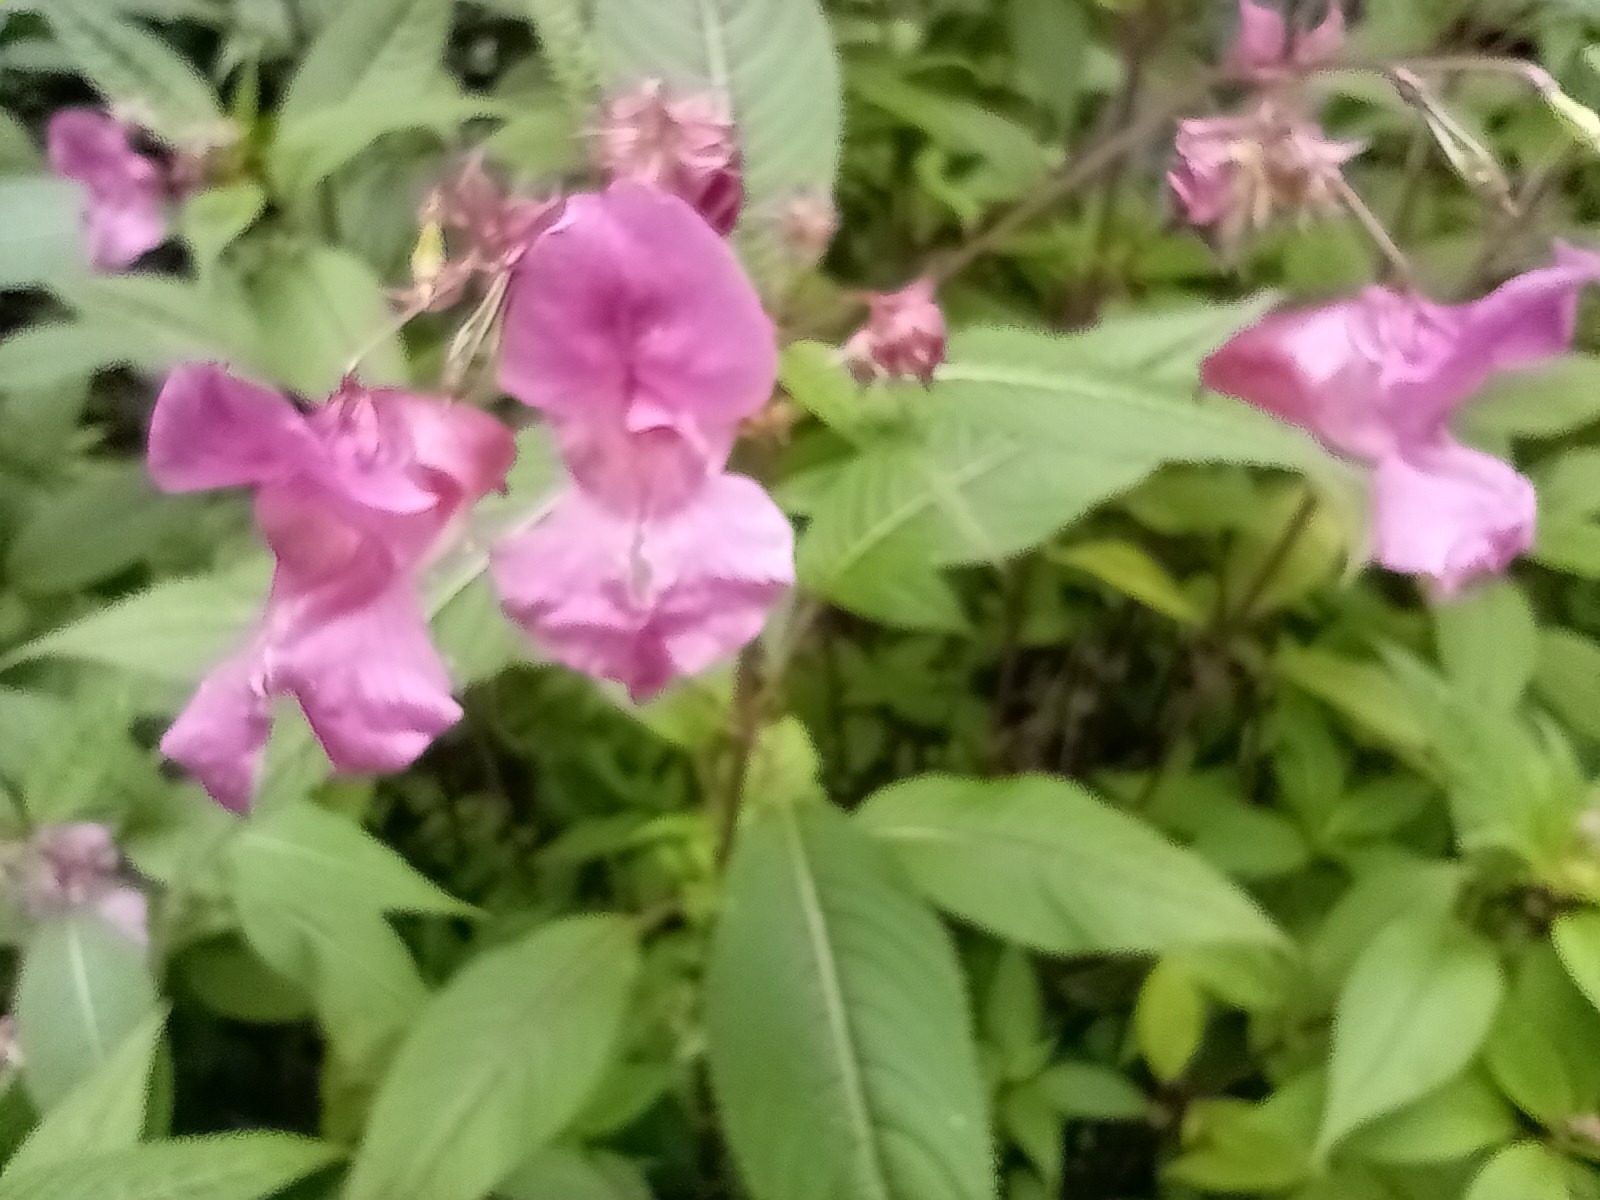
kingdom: Plantae
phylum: Tracheophyta
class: Magnoliopsida
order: Ericales
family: Balsaminaceae
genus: Impatiens
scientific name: Impatiens glandulifera
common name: Himalayan balsam
